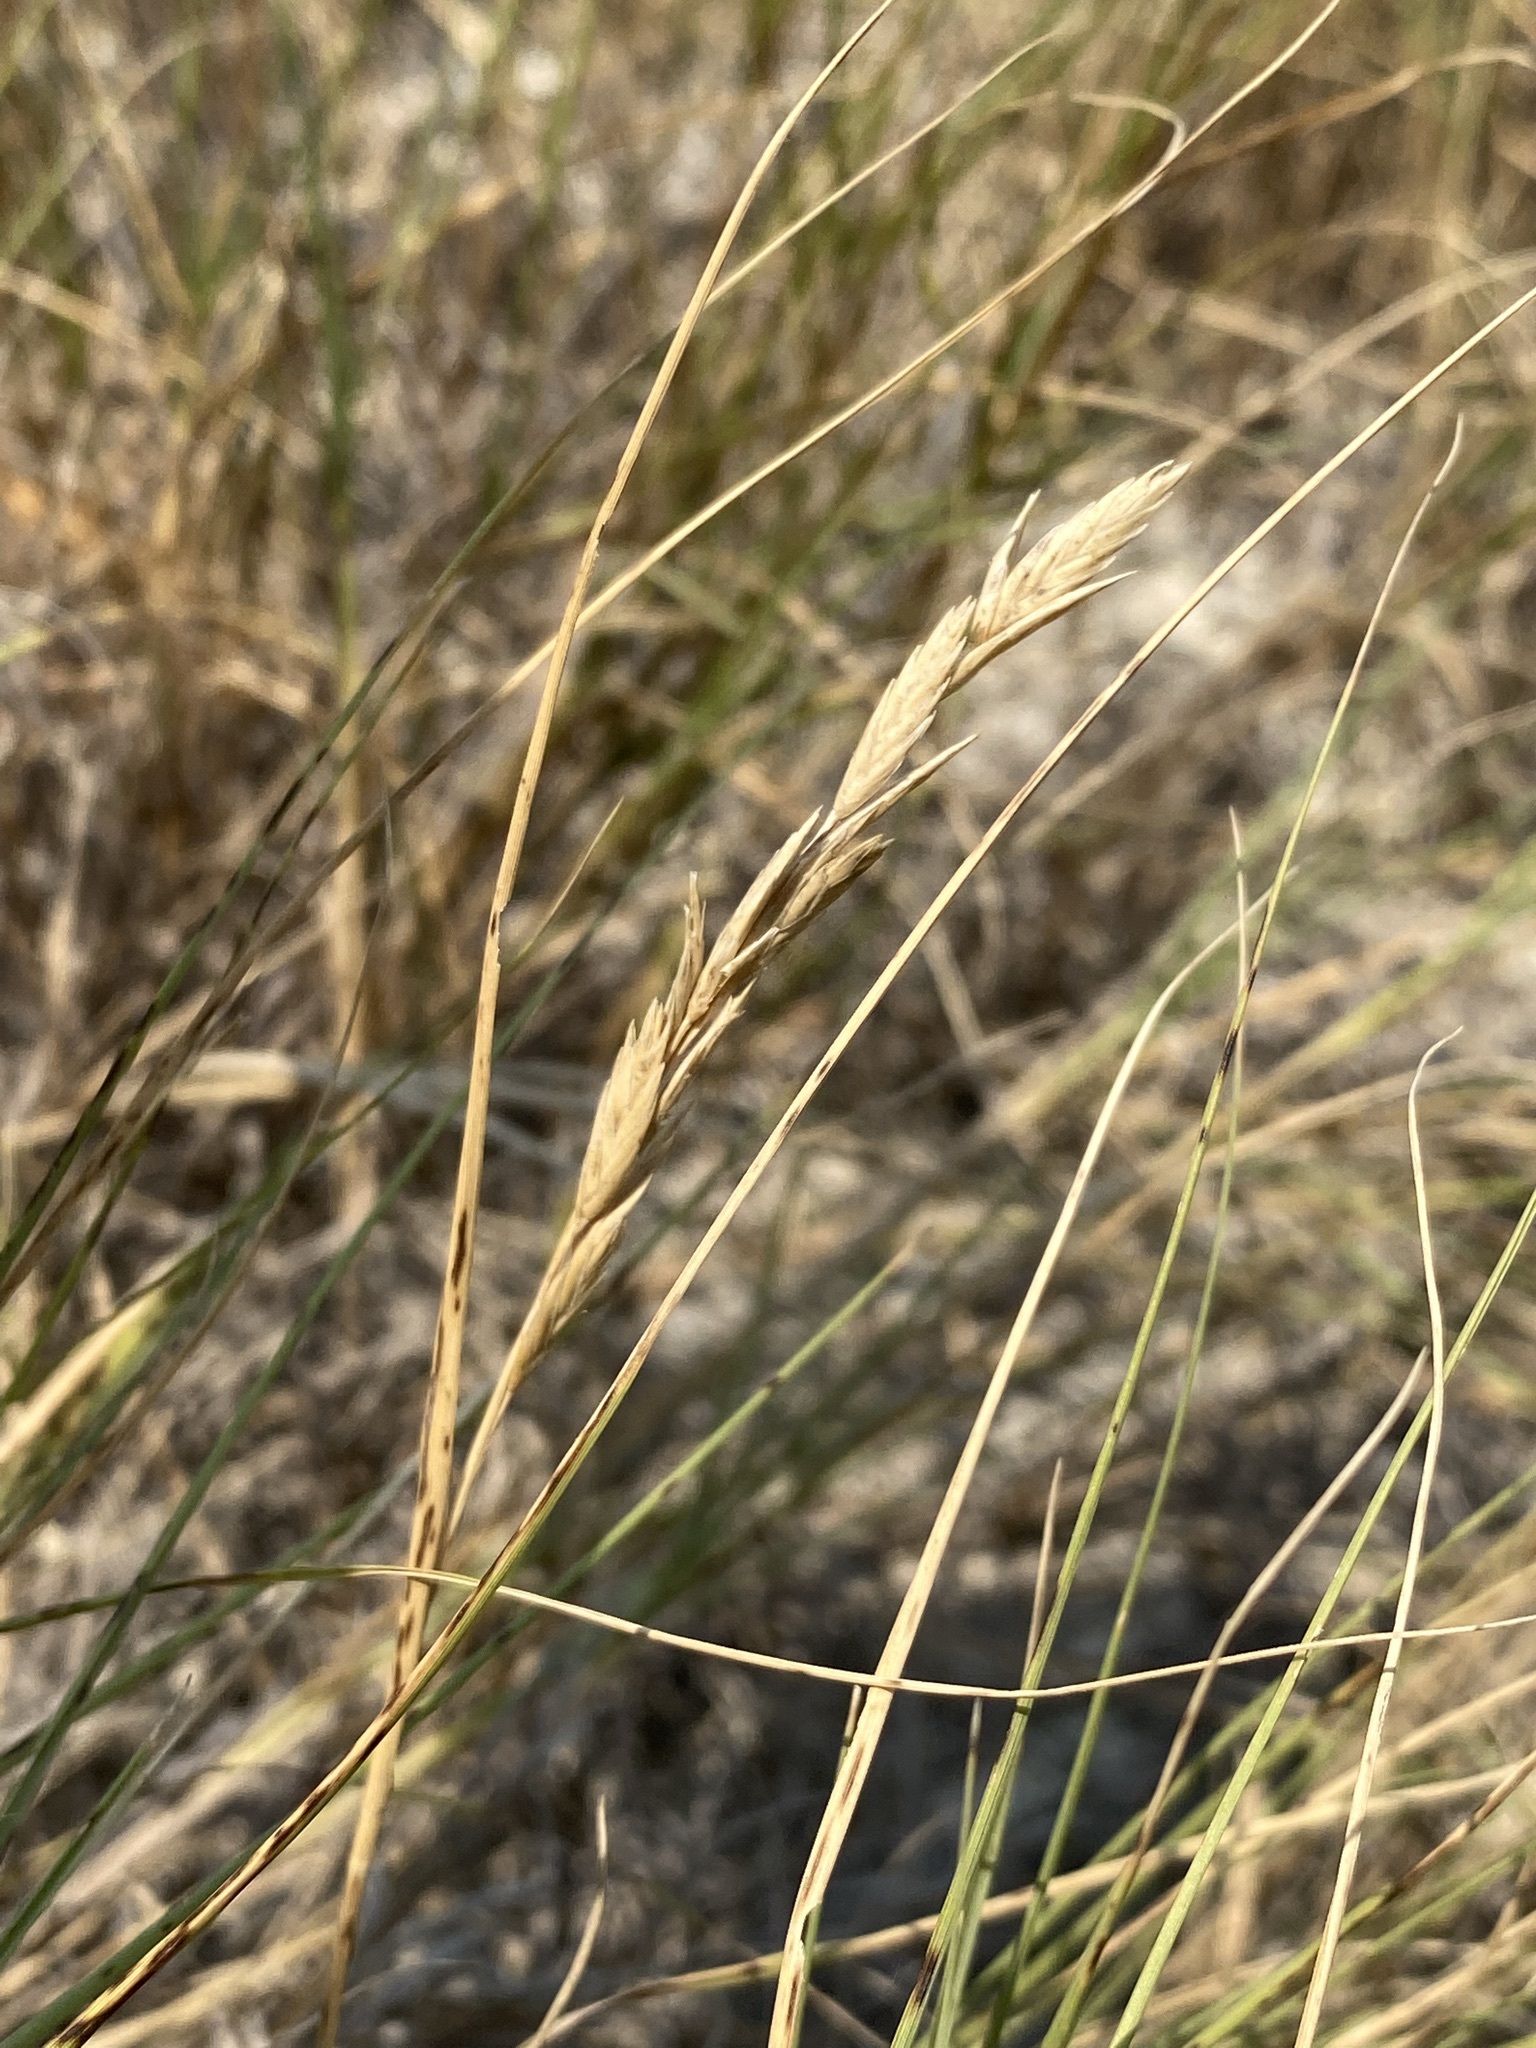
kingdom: Plantae
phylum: Tracheophyta
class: Liliopsida
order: Poales
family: Poaceae
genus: Distichlis
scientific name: Distichlis spicata
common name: Saltgrass
